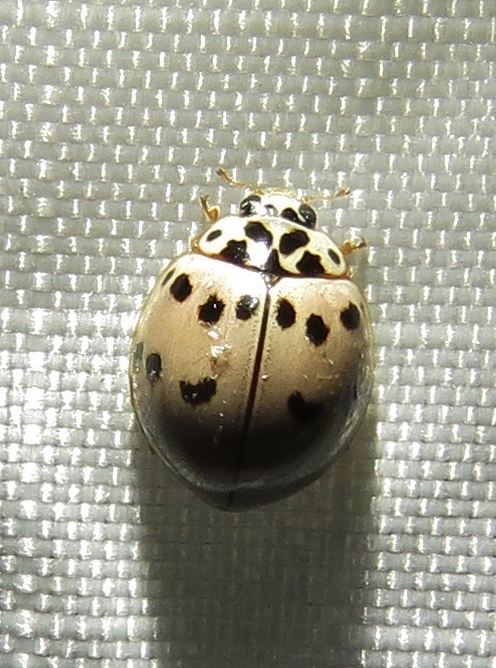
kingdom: Animalia
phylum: Arthropoda
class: Insecta
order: Coleoptera
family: Coccinellidae
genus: Olla
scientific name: Olla v-nigrum
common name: Ashy gray lady beetle
